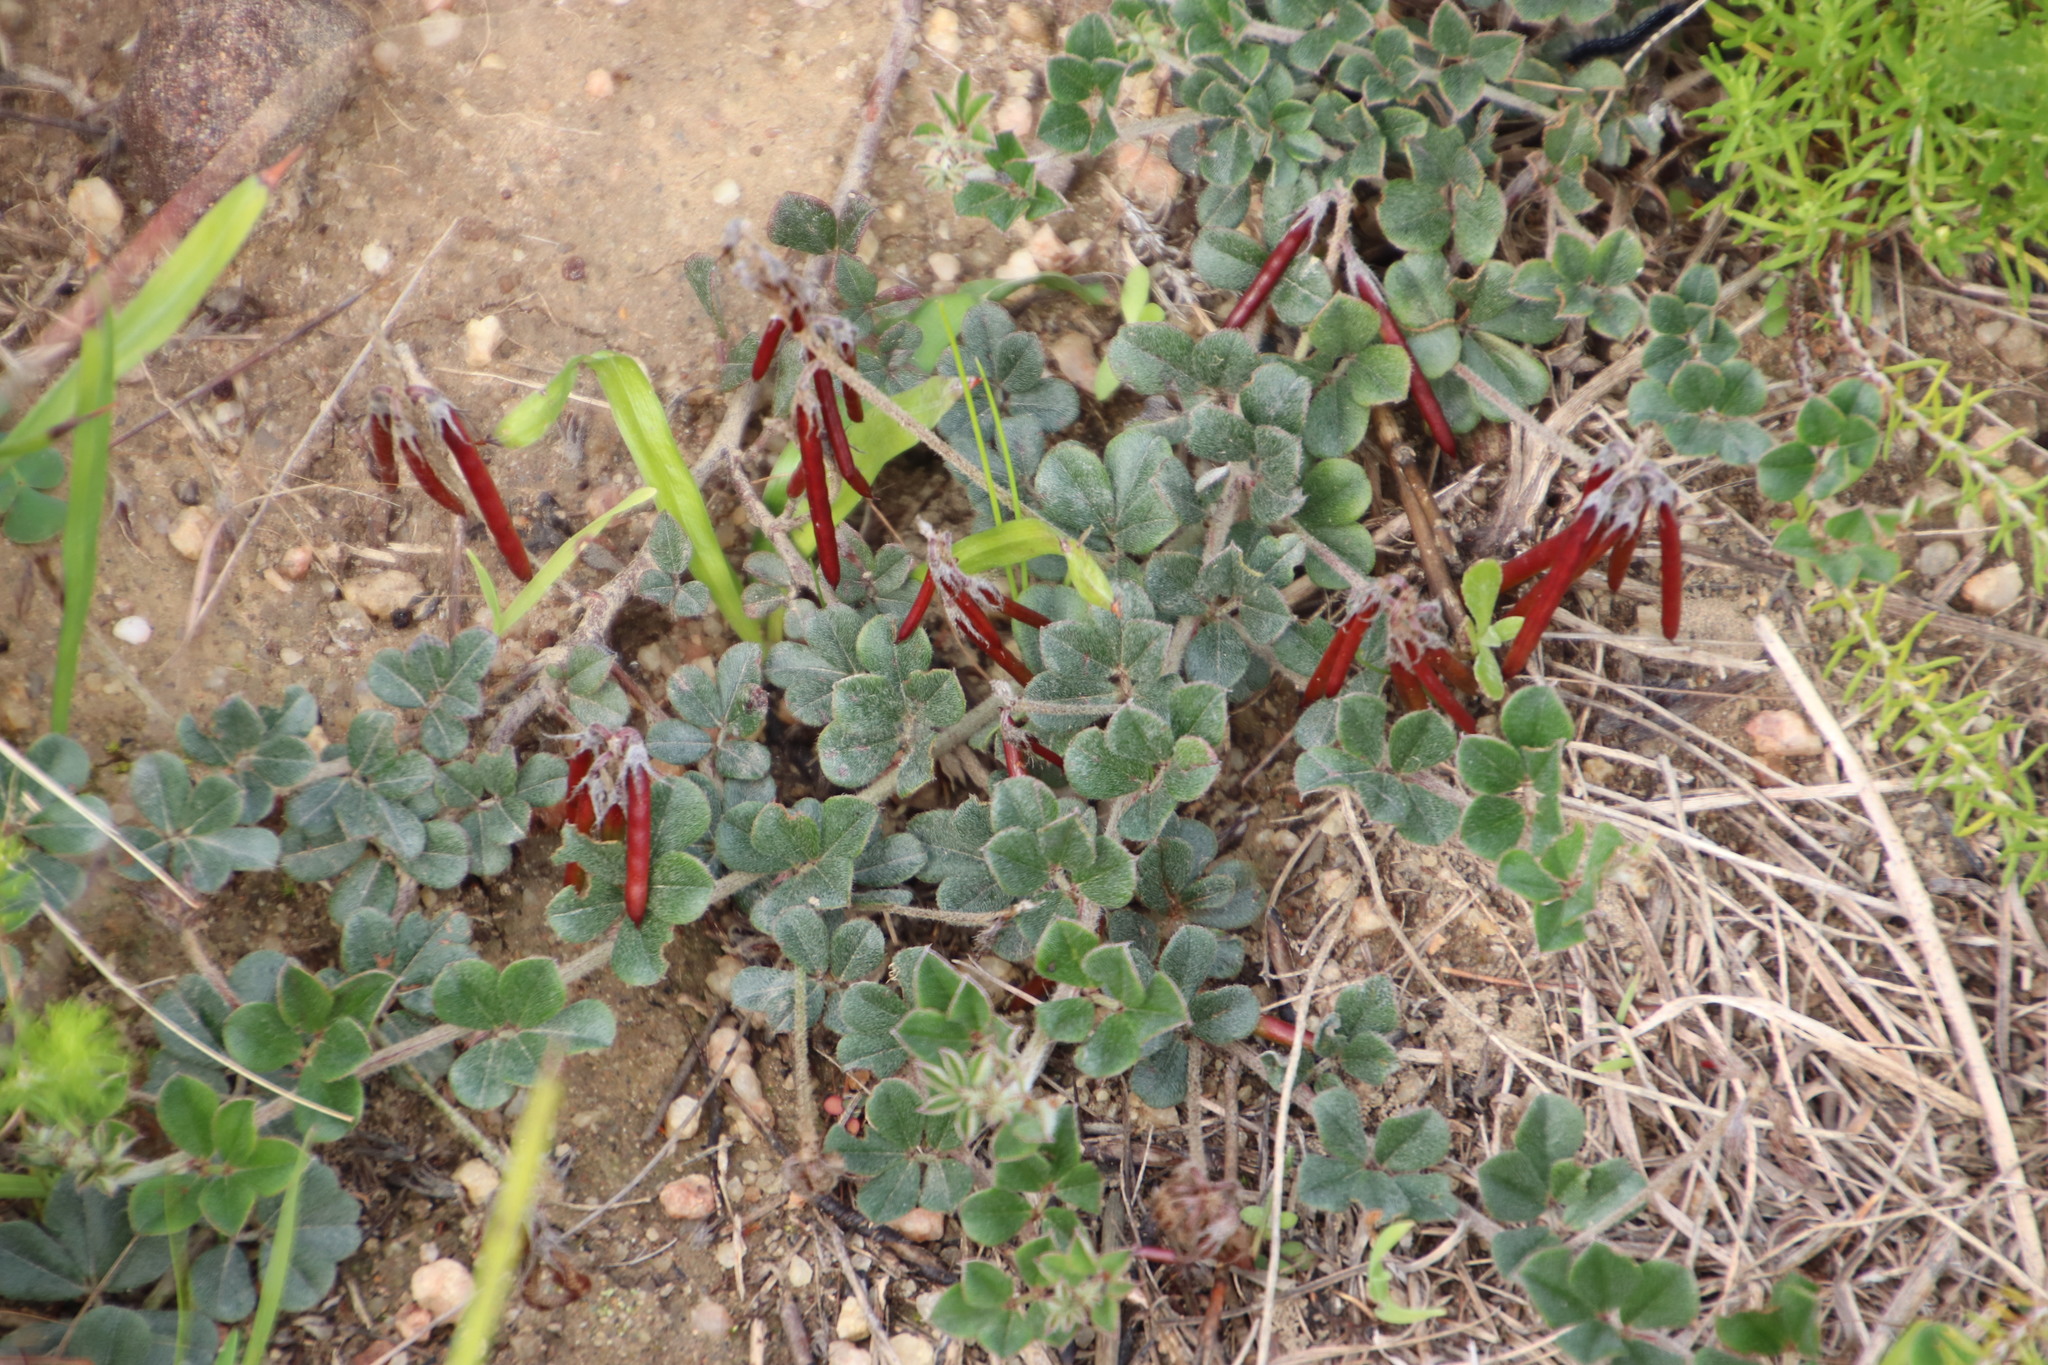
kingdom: Plantae
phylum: Tracheophyta
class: Magnoliopsida
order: Fabales
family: Fabaceae
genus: Indigofera
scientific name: Indigofera mauritanica
